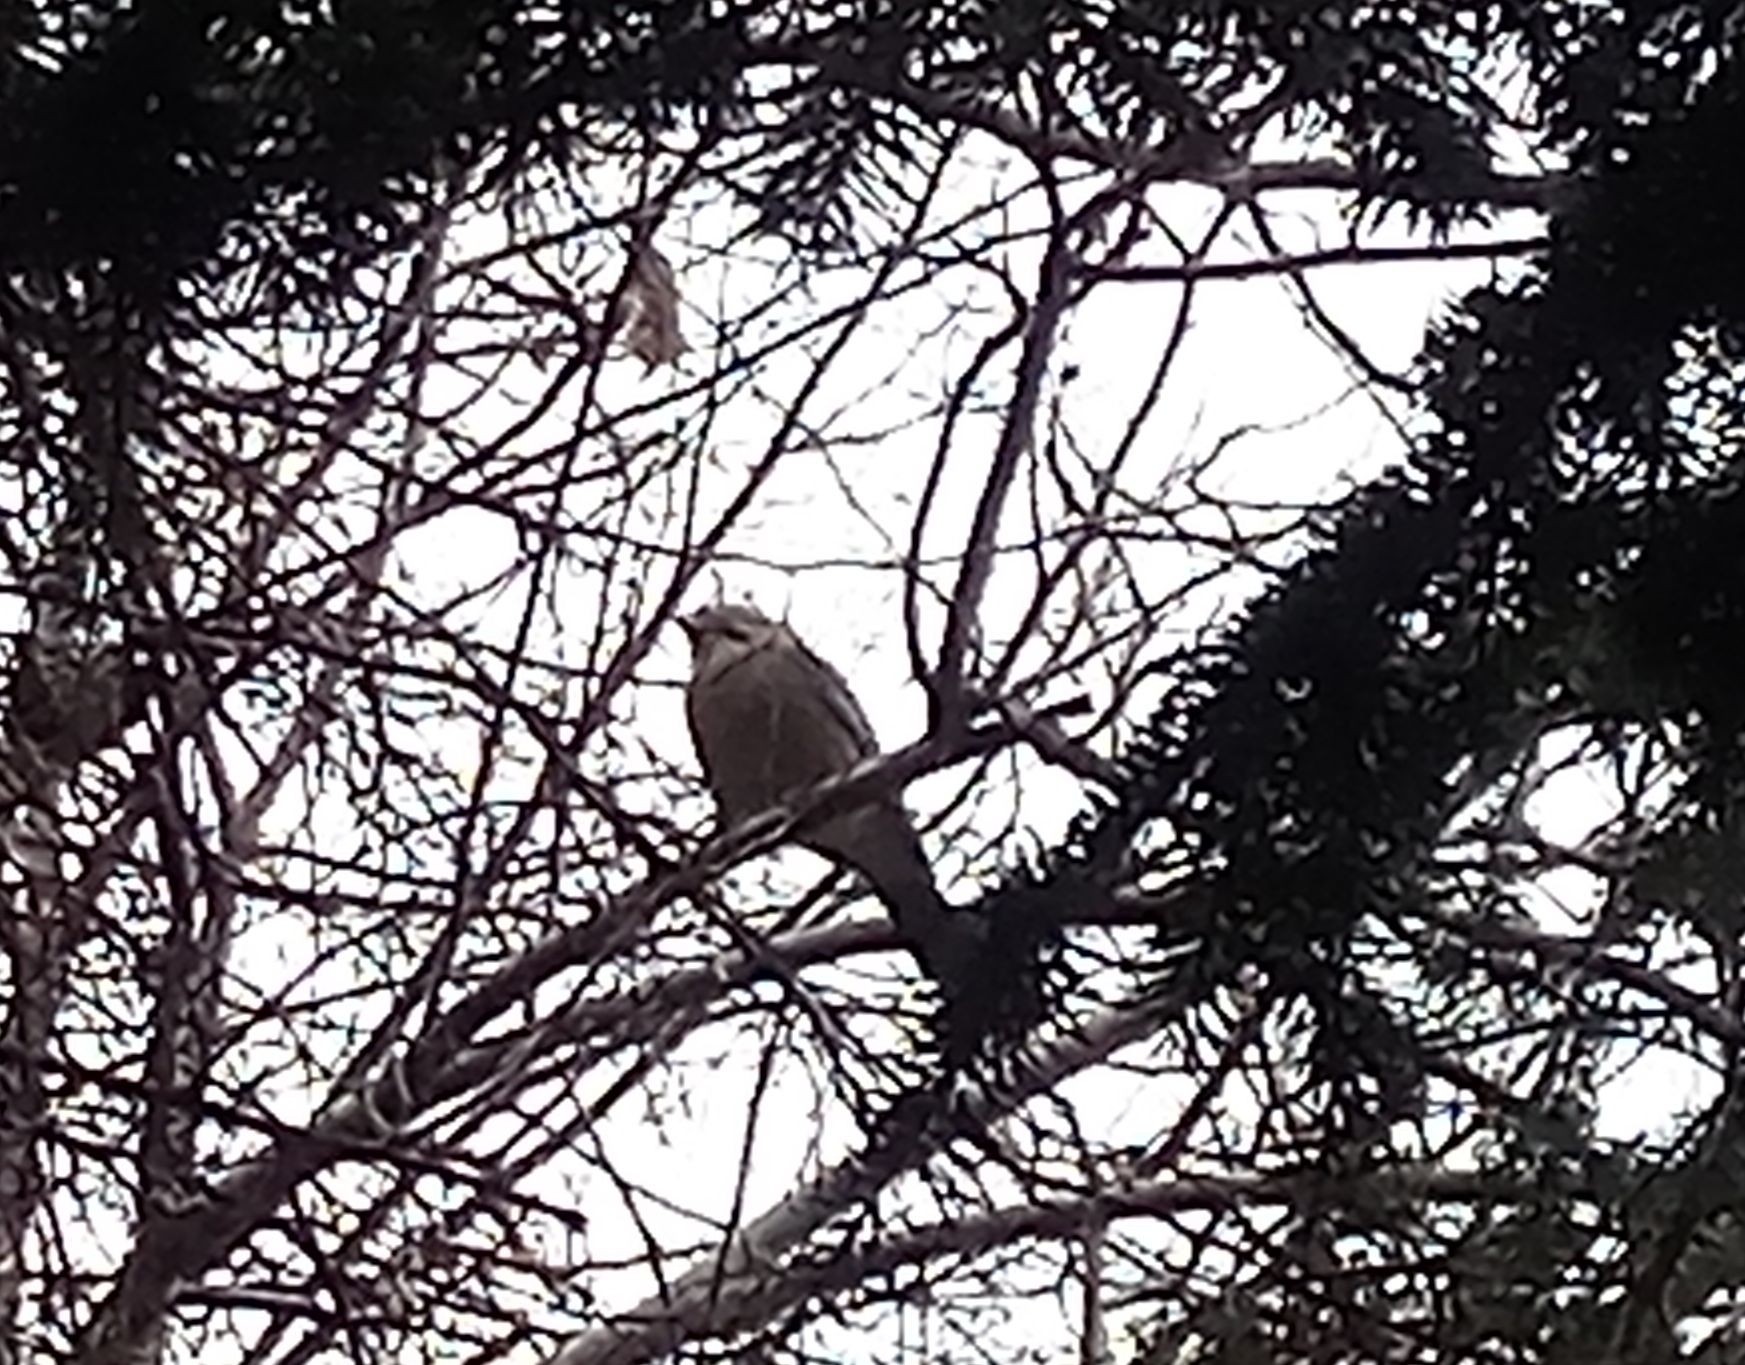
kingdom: Animalia
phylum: Chordata
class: Aves
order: Passeriformes
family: Corvidae
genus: Garrulus
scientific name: Garrulus glandarius
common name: Eurasian jay
